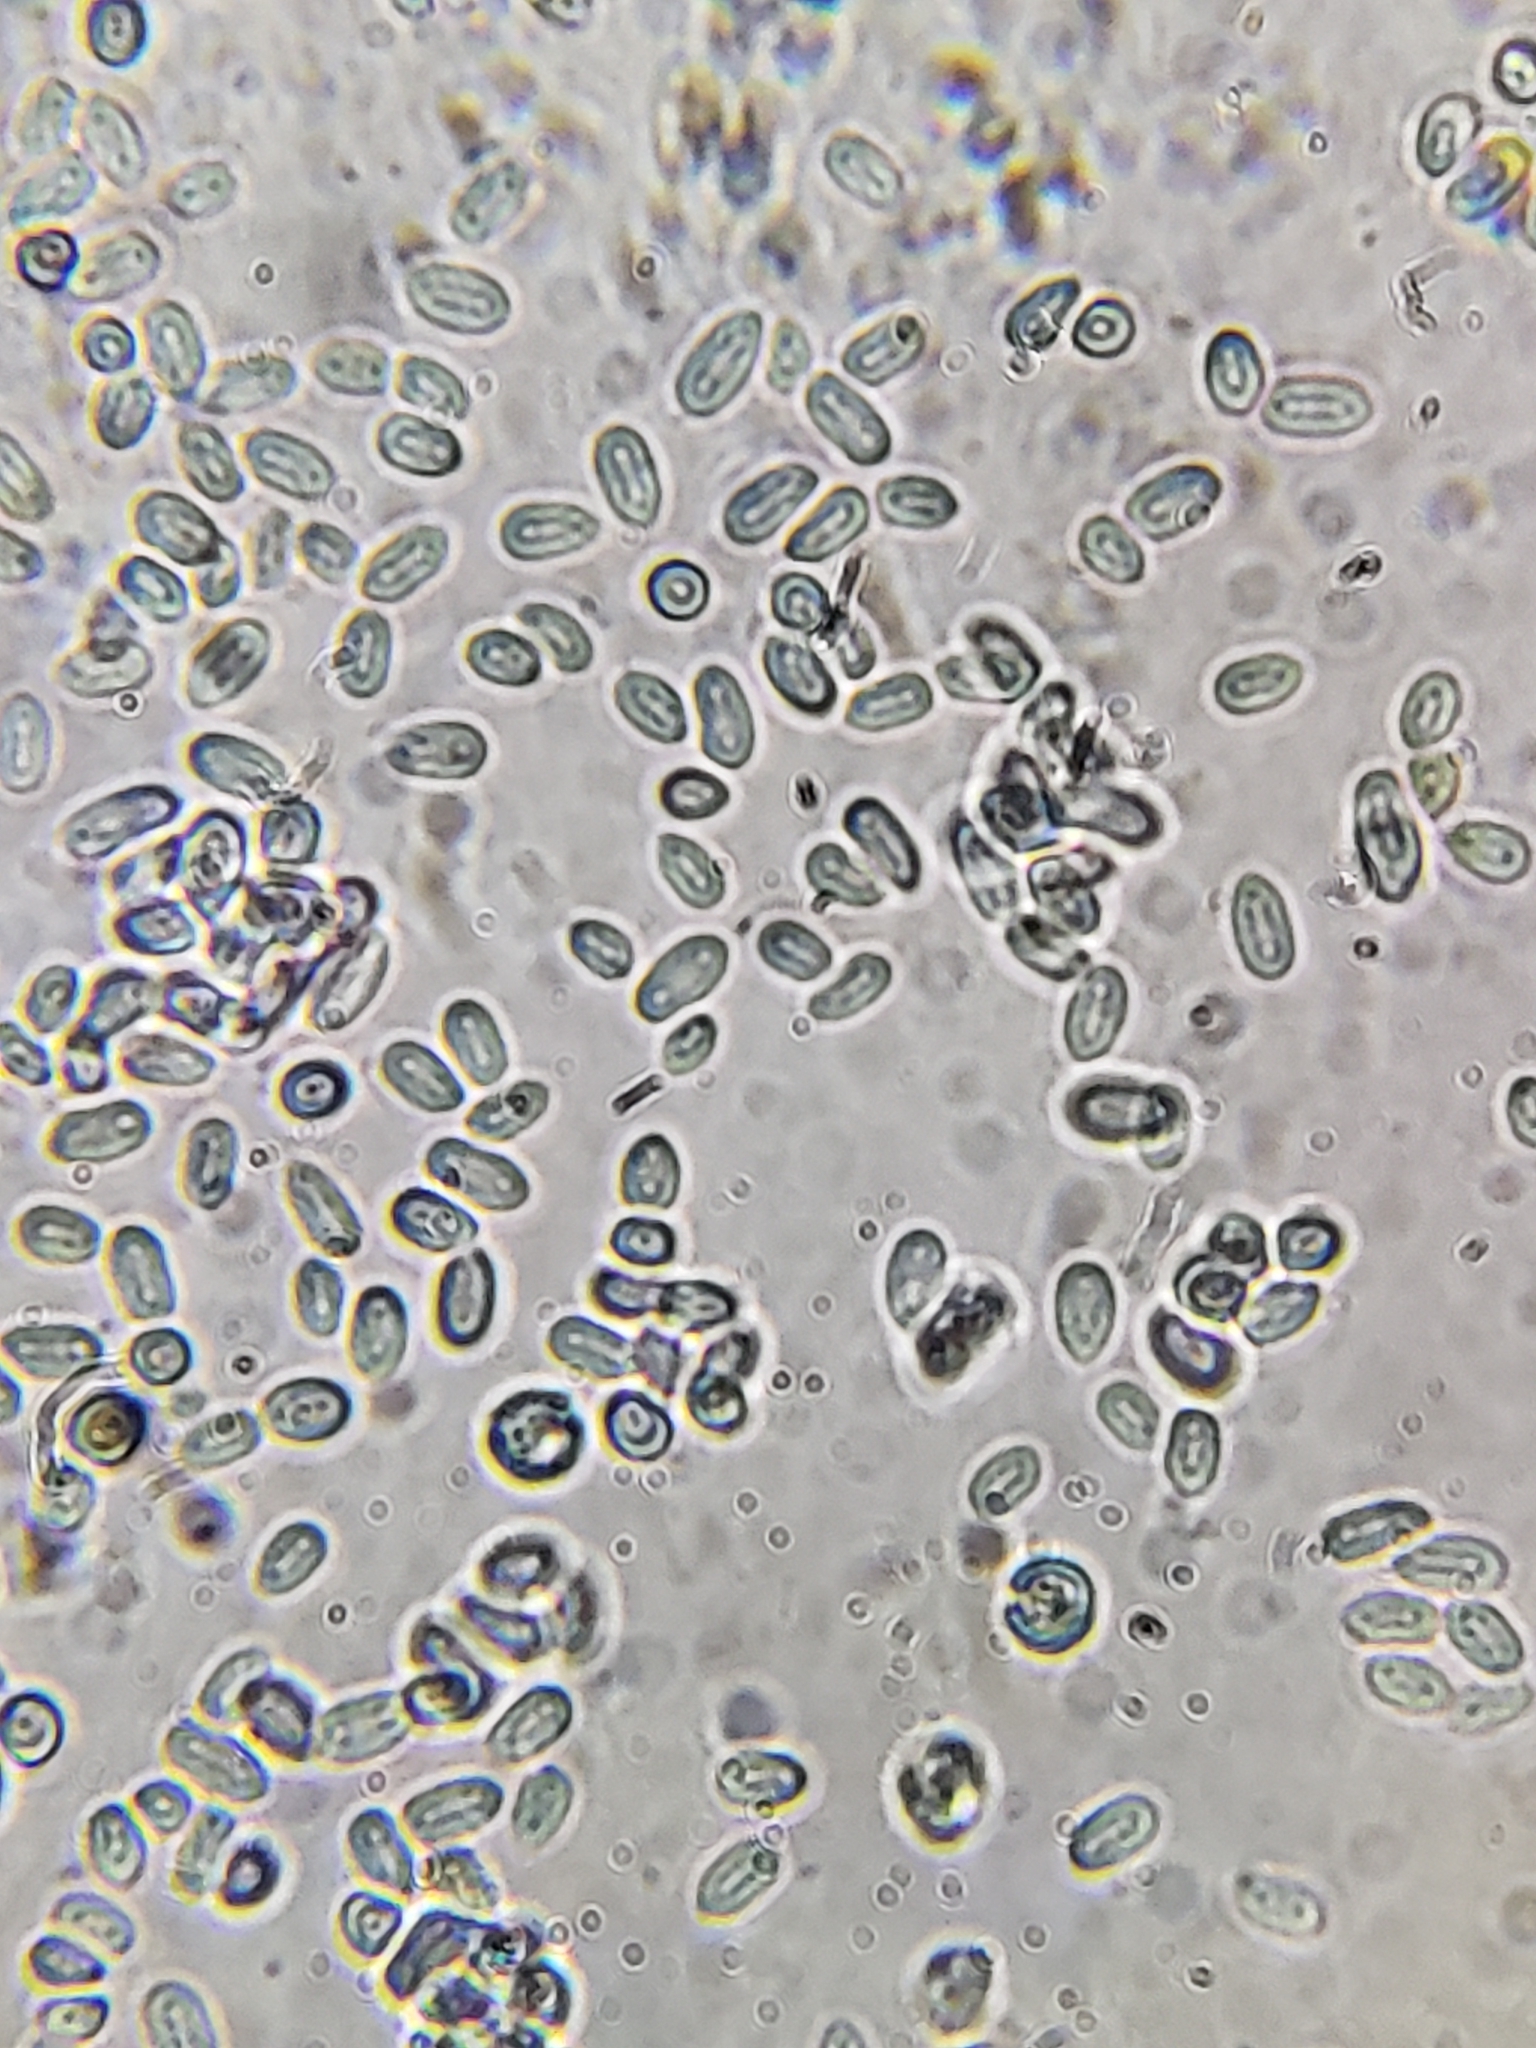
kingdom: Fungi
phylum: Ascomycota
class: Sordariomycetes
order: Hypocreales
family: Bionectriaceae
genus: Nectriopsis
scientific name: Nectriopsis rexiana
